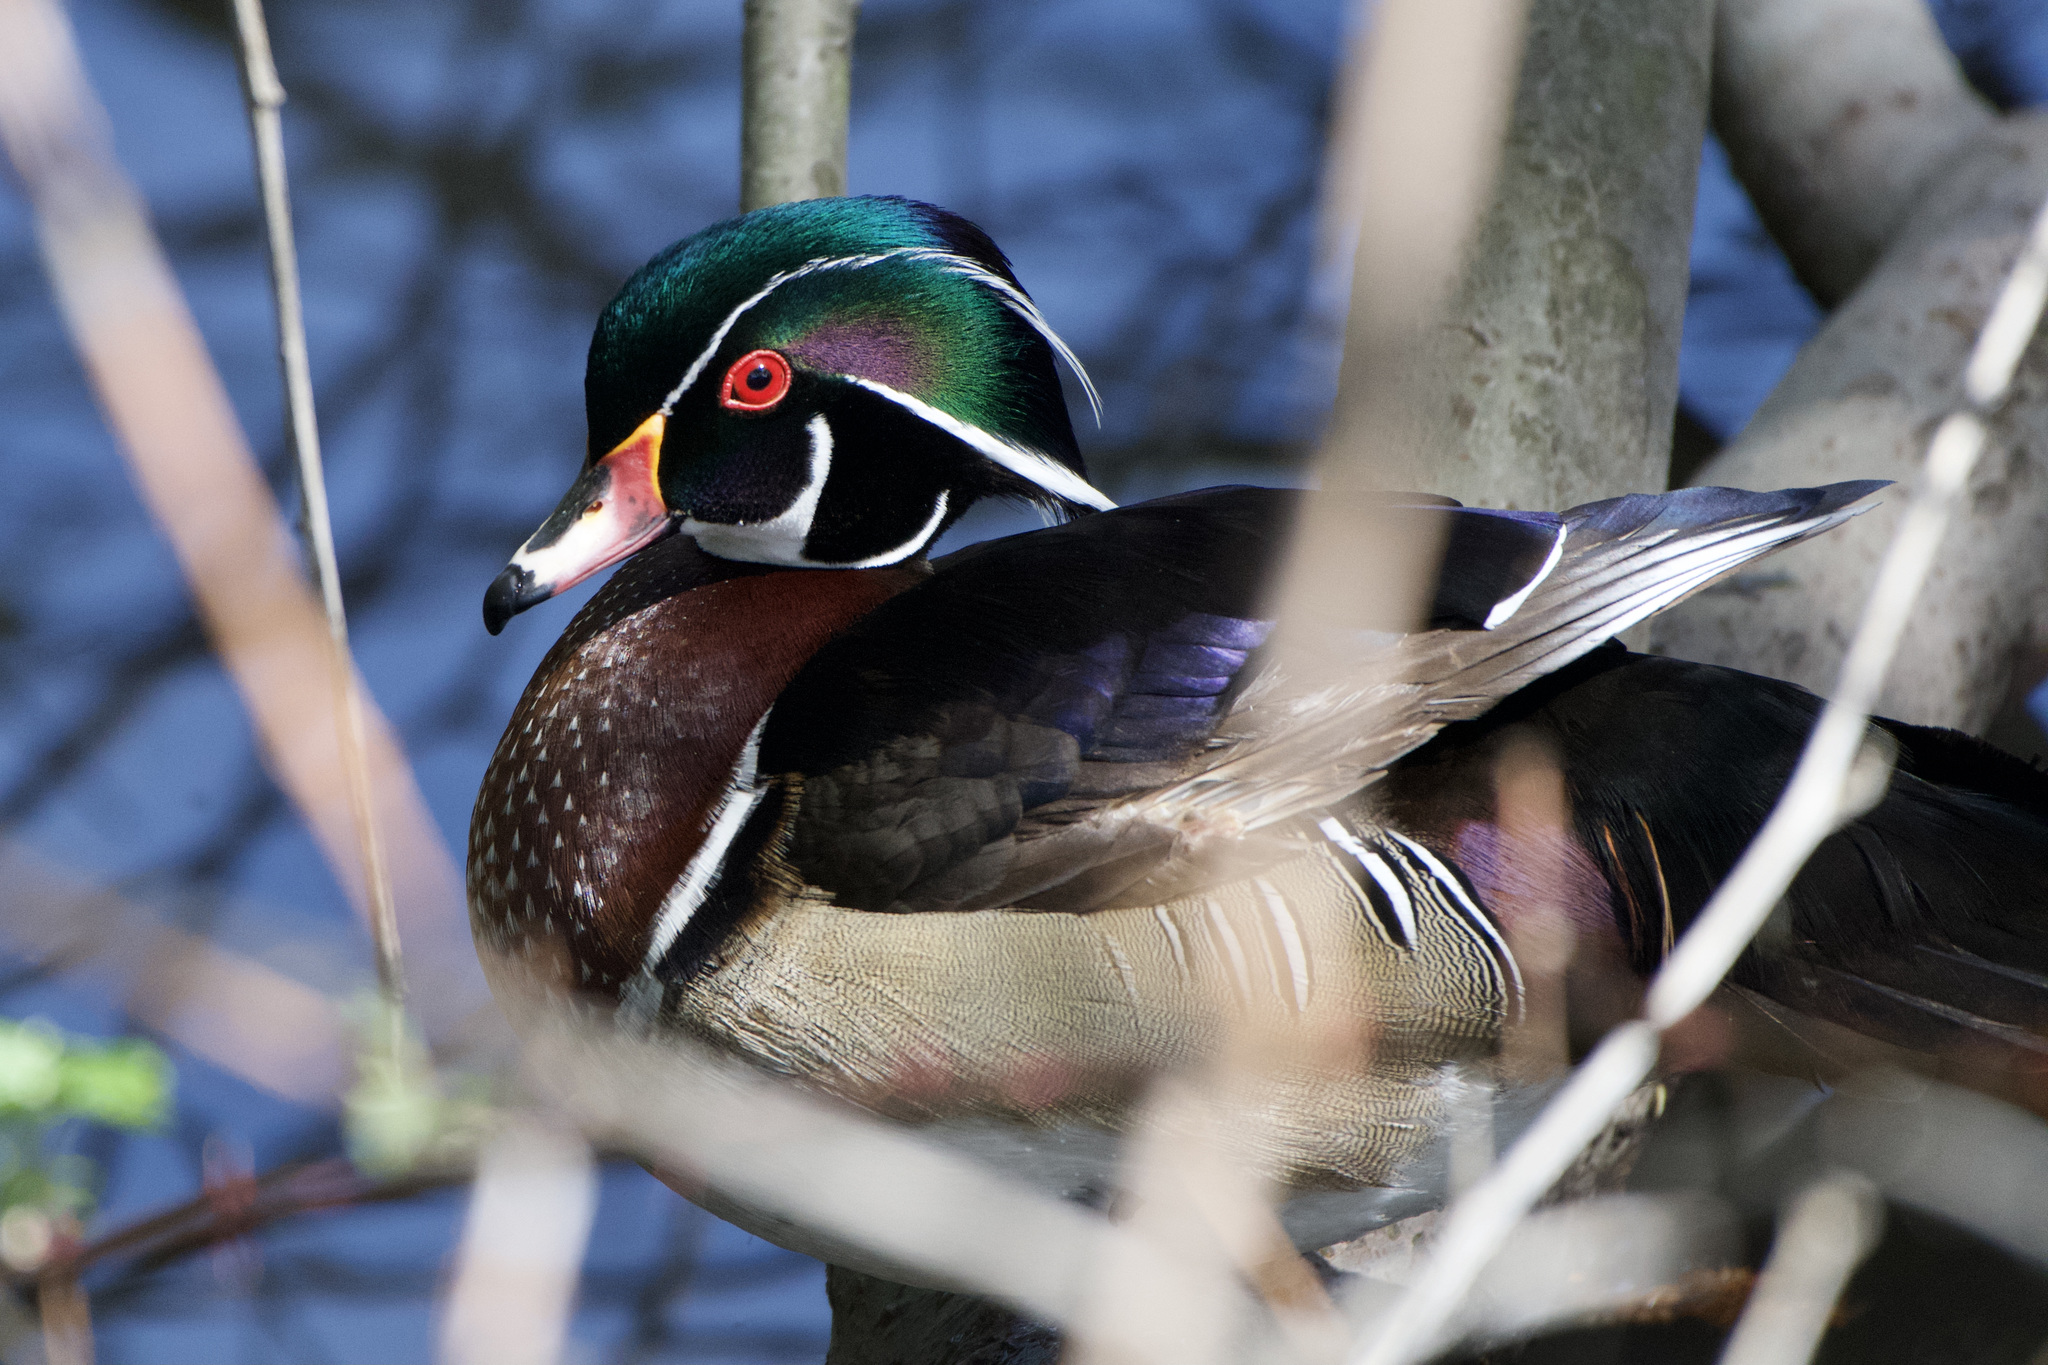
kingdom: Animalia
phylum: Chordata
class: Aves
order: Anseriformes
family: Anatidae
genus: Aix
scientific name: Aix sponsa
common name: Wood duck
